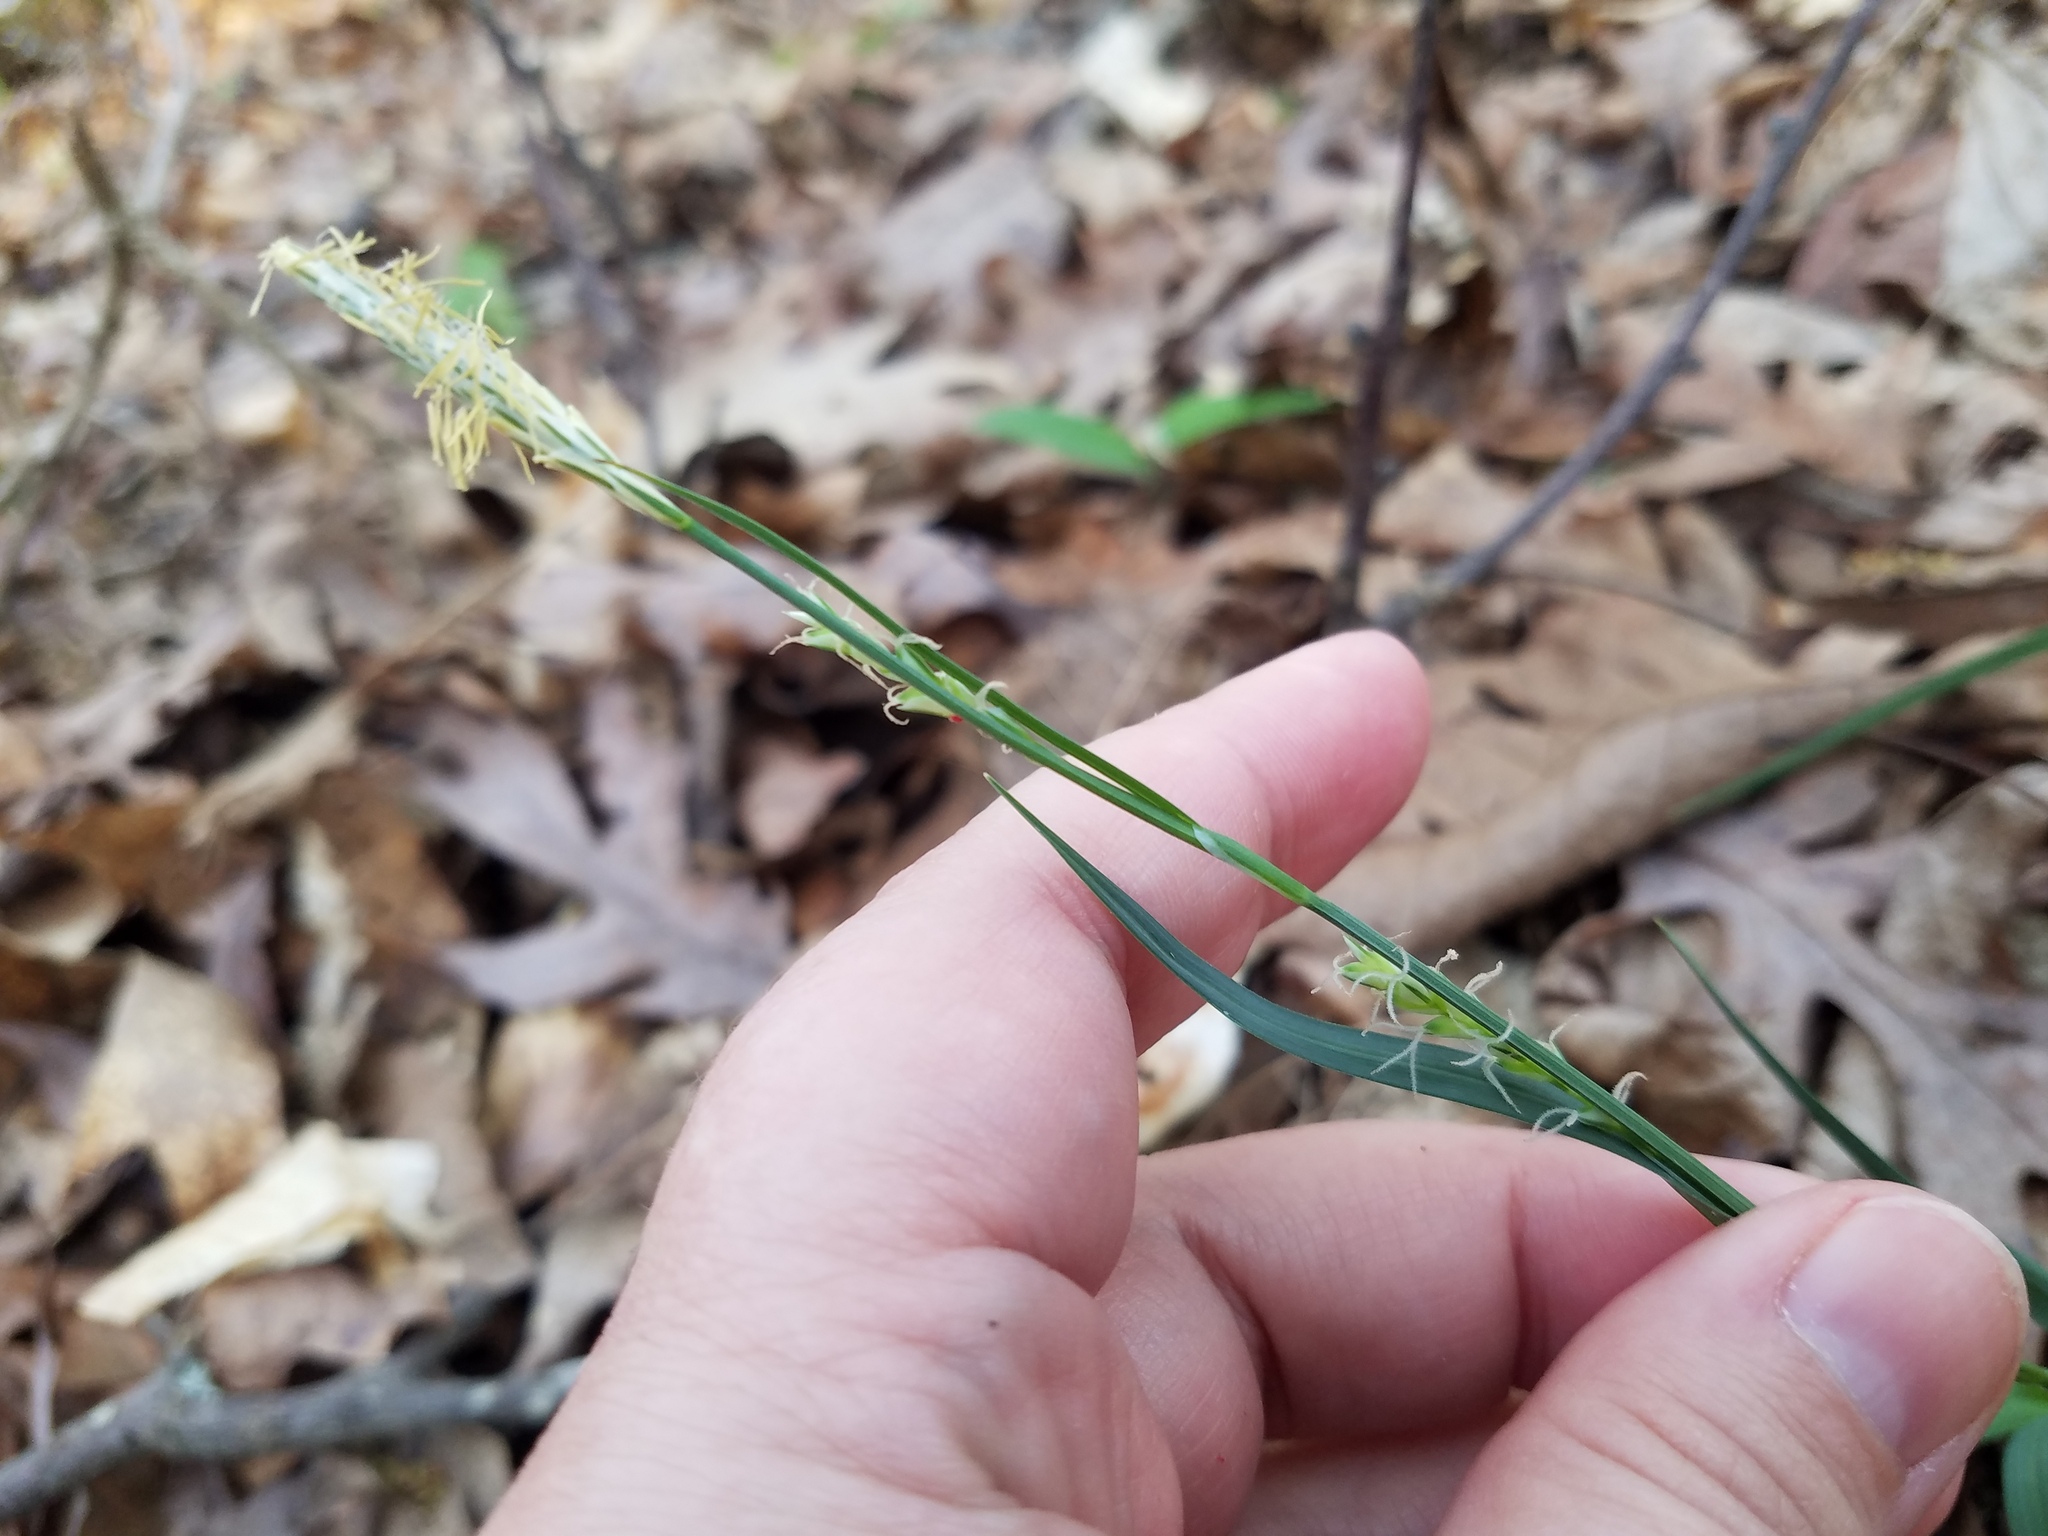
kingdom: Plantae
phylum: Tracheophyta
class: Liliopsida
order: Poales
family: Cyperaceae
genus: Carex
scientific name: Carex flaccosperma
